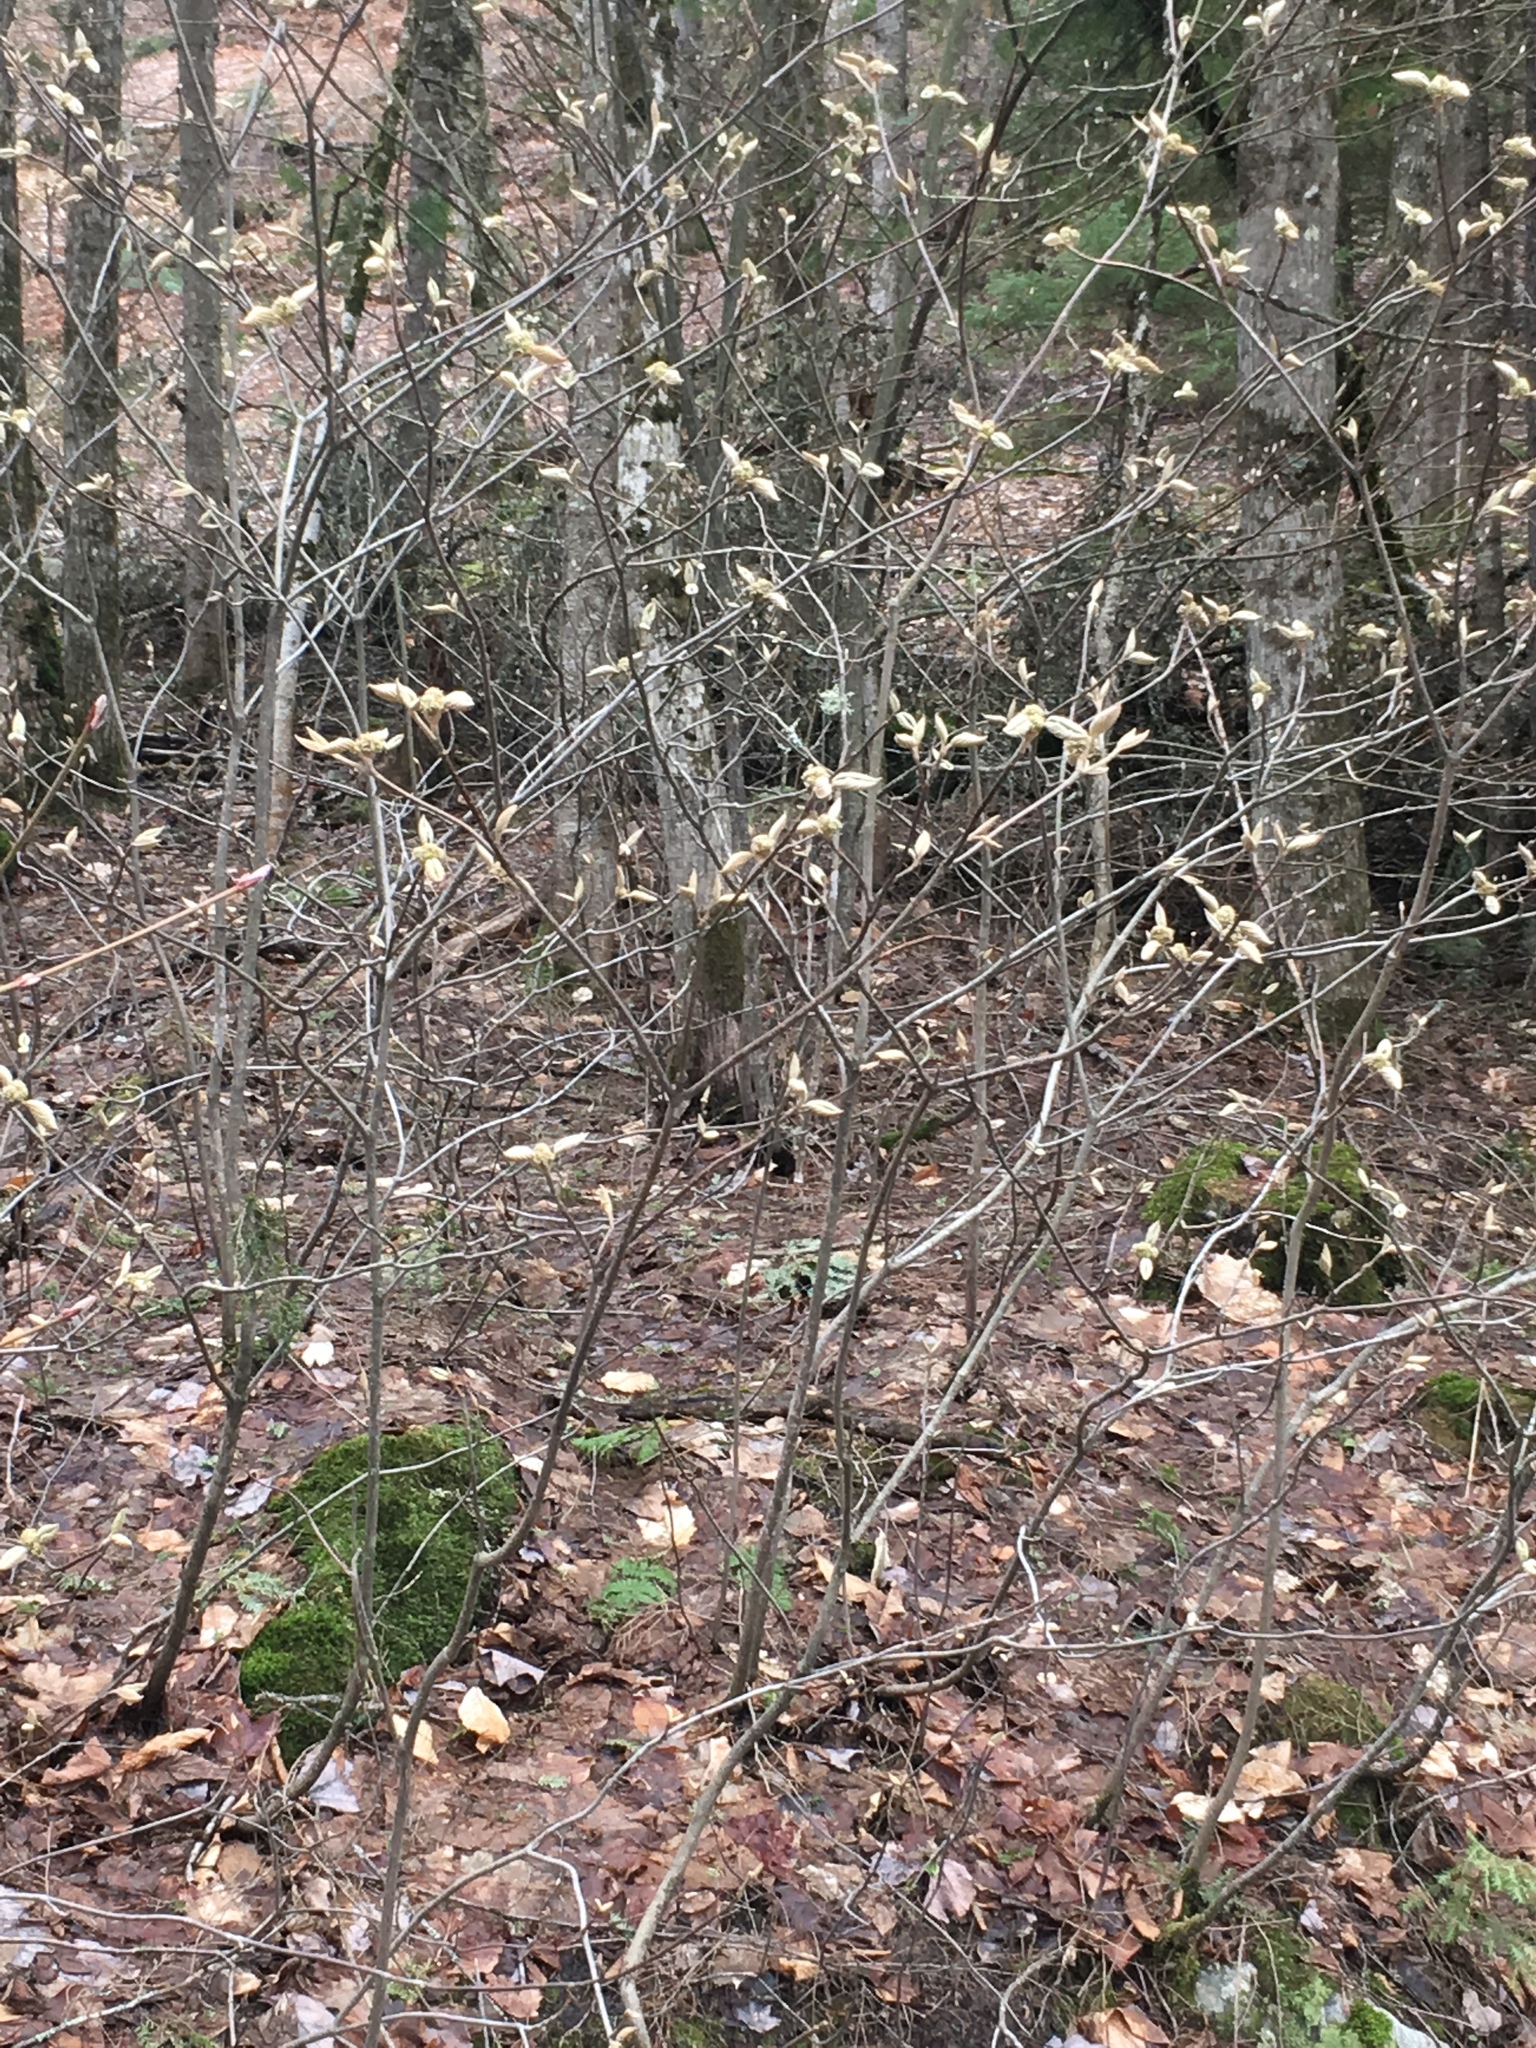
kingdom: Plantae
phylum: Tracheophyta
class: Magnoliopsida
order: Dipsacales
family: Viburnaceae
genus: Viburnum
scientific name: Viburnum lantanoides
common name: Hobblebush
